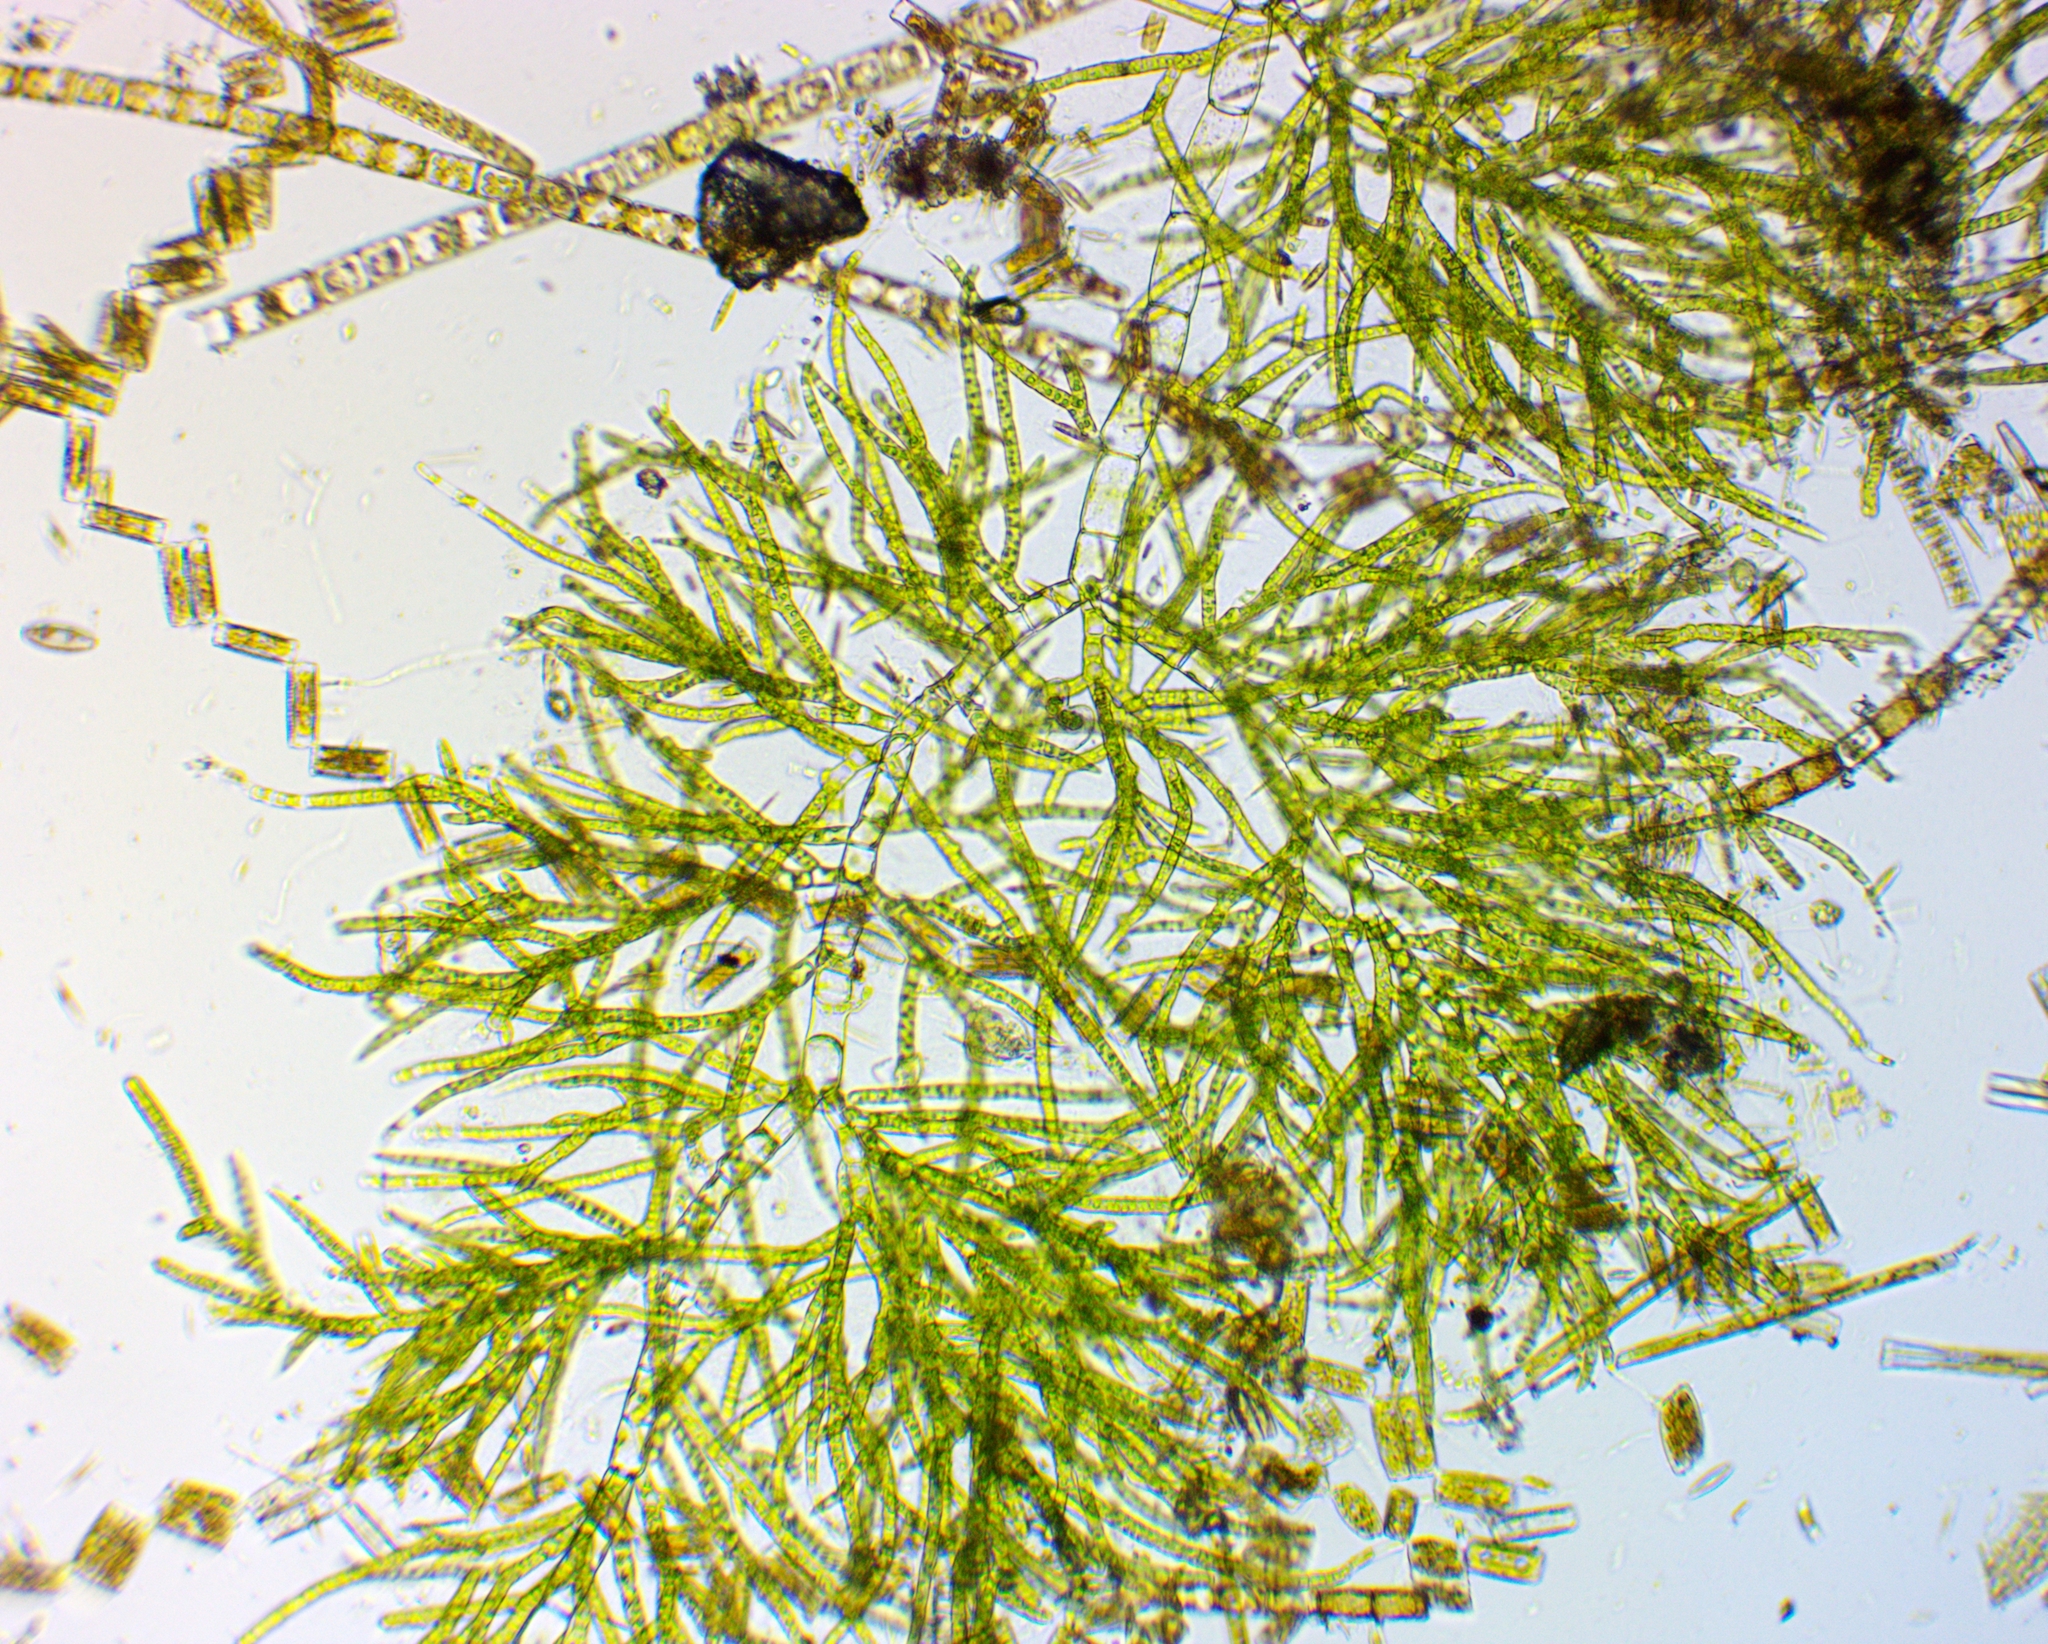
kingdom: Plantae
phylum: Chlorophyta
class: Chlorophyceae
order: Chaetophorales
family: Chaetophoraceae
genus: Draparnaldia
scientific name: Draparnaldia mutabilis
